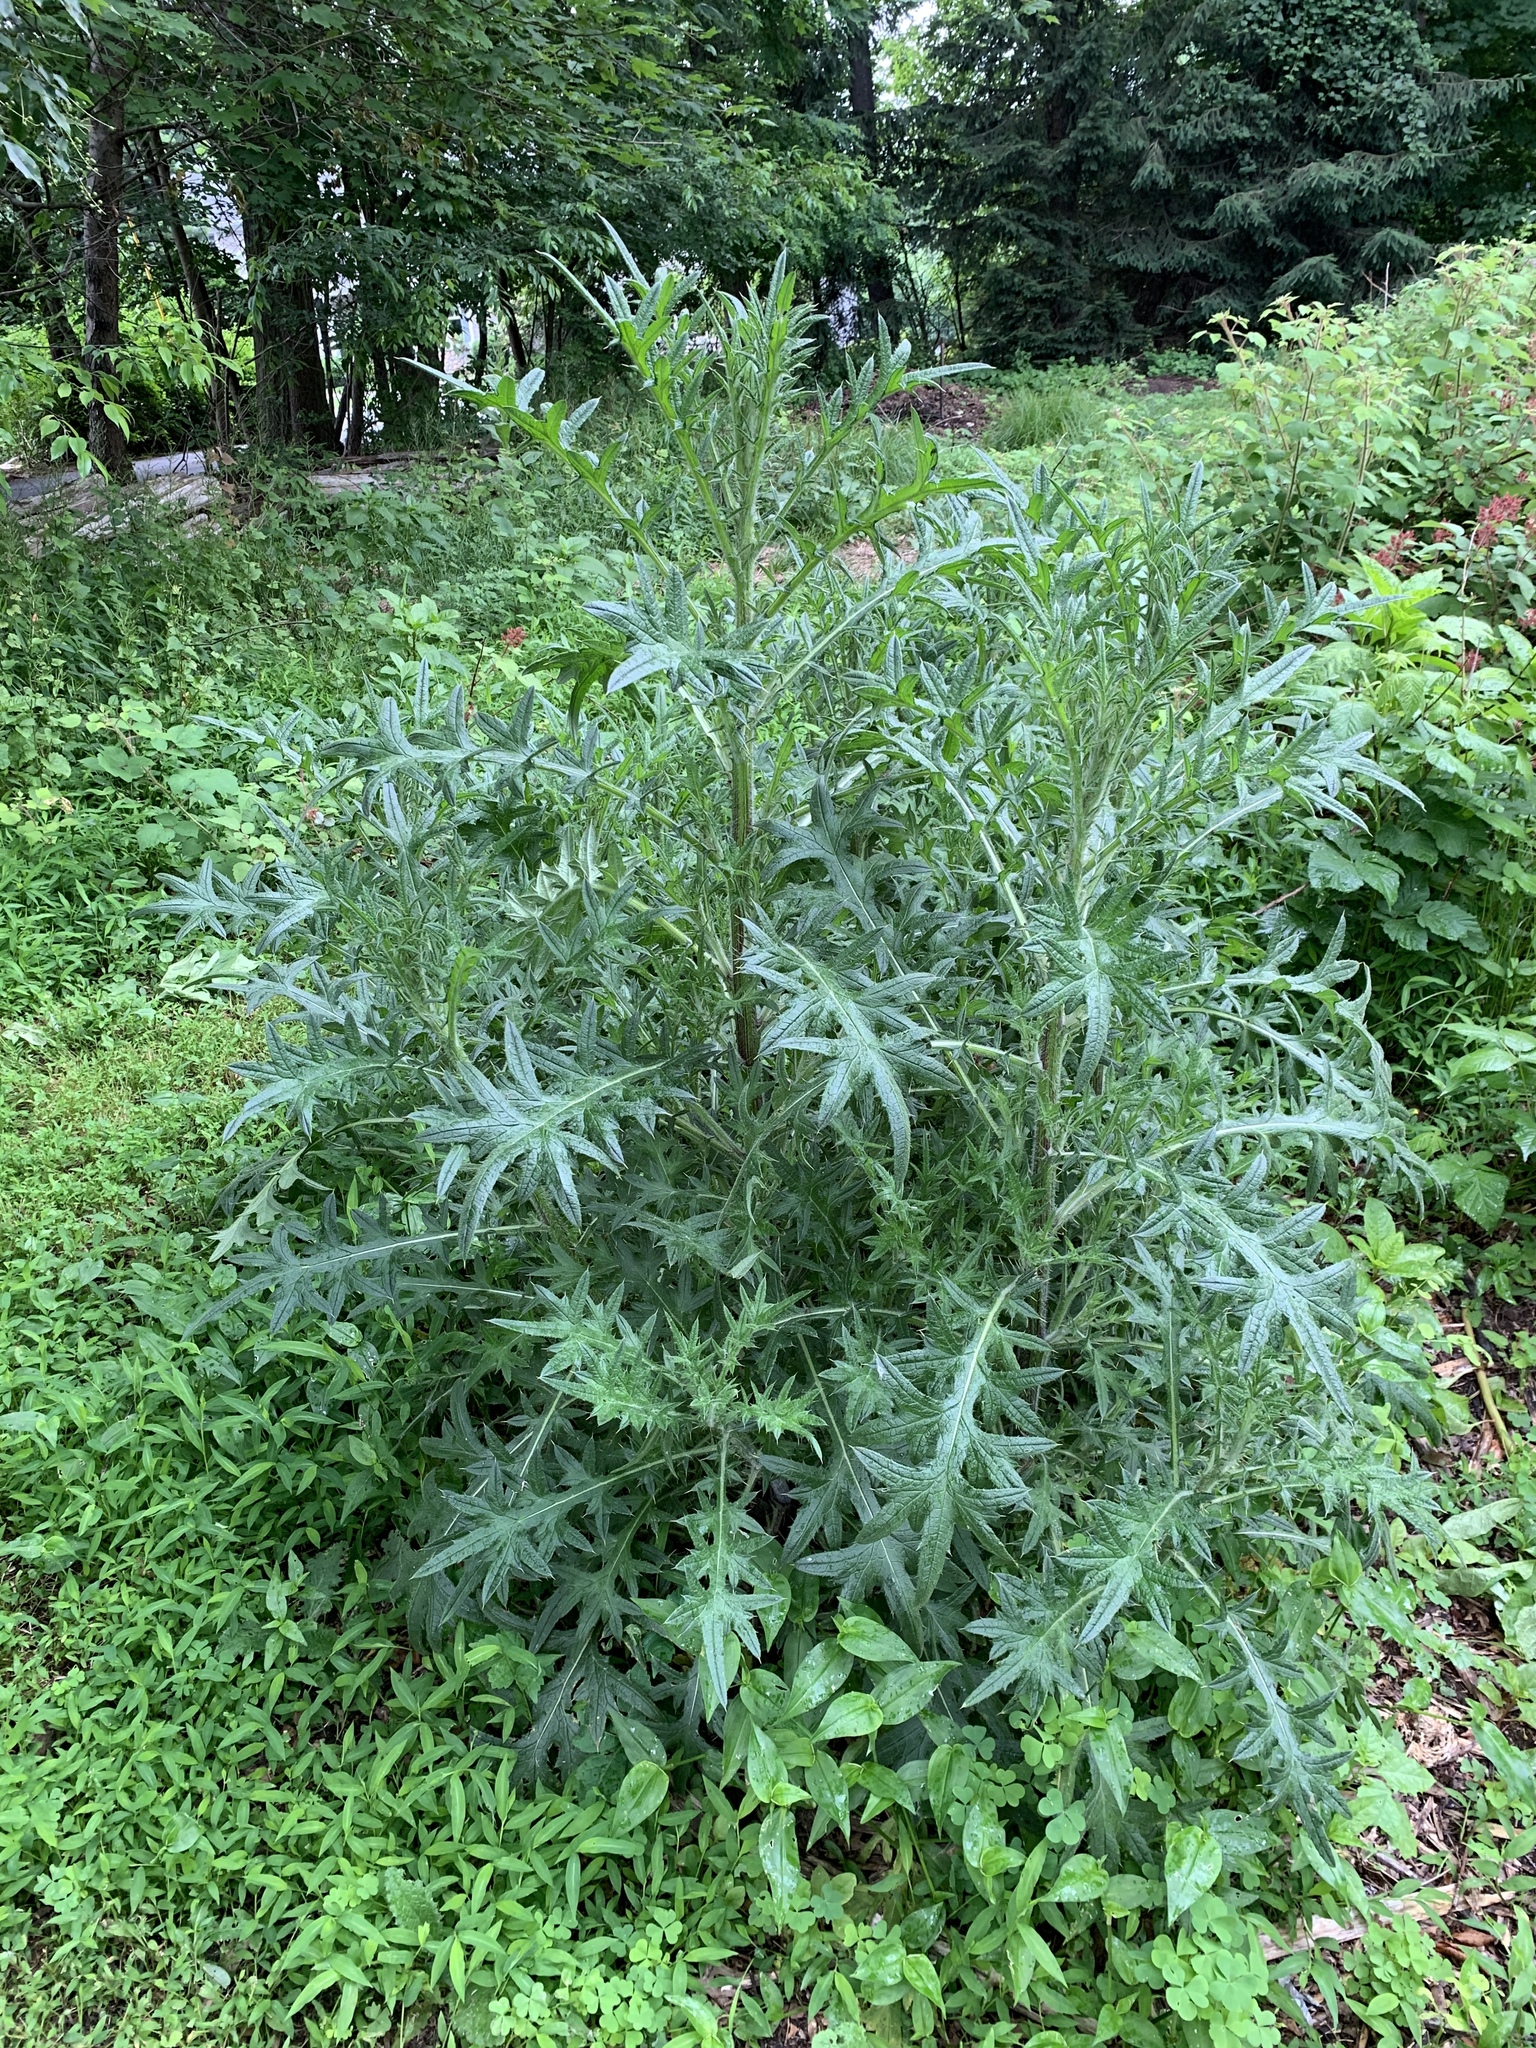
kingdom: Plantae
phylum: Tracheophyta
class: Magnoliopsida
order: Asterales
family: Asteraceae
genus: Cirsium
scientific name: Cirsium vulgare
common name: Bull thistle
